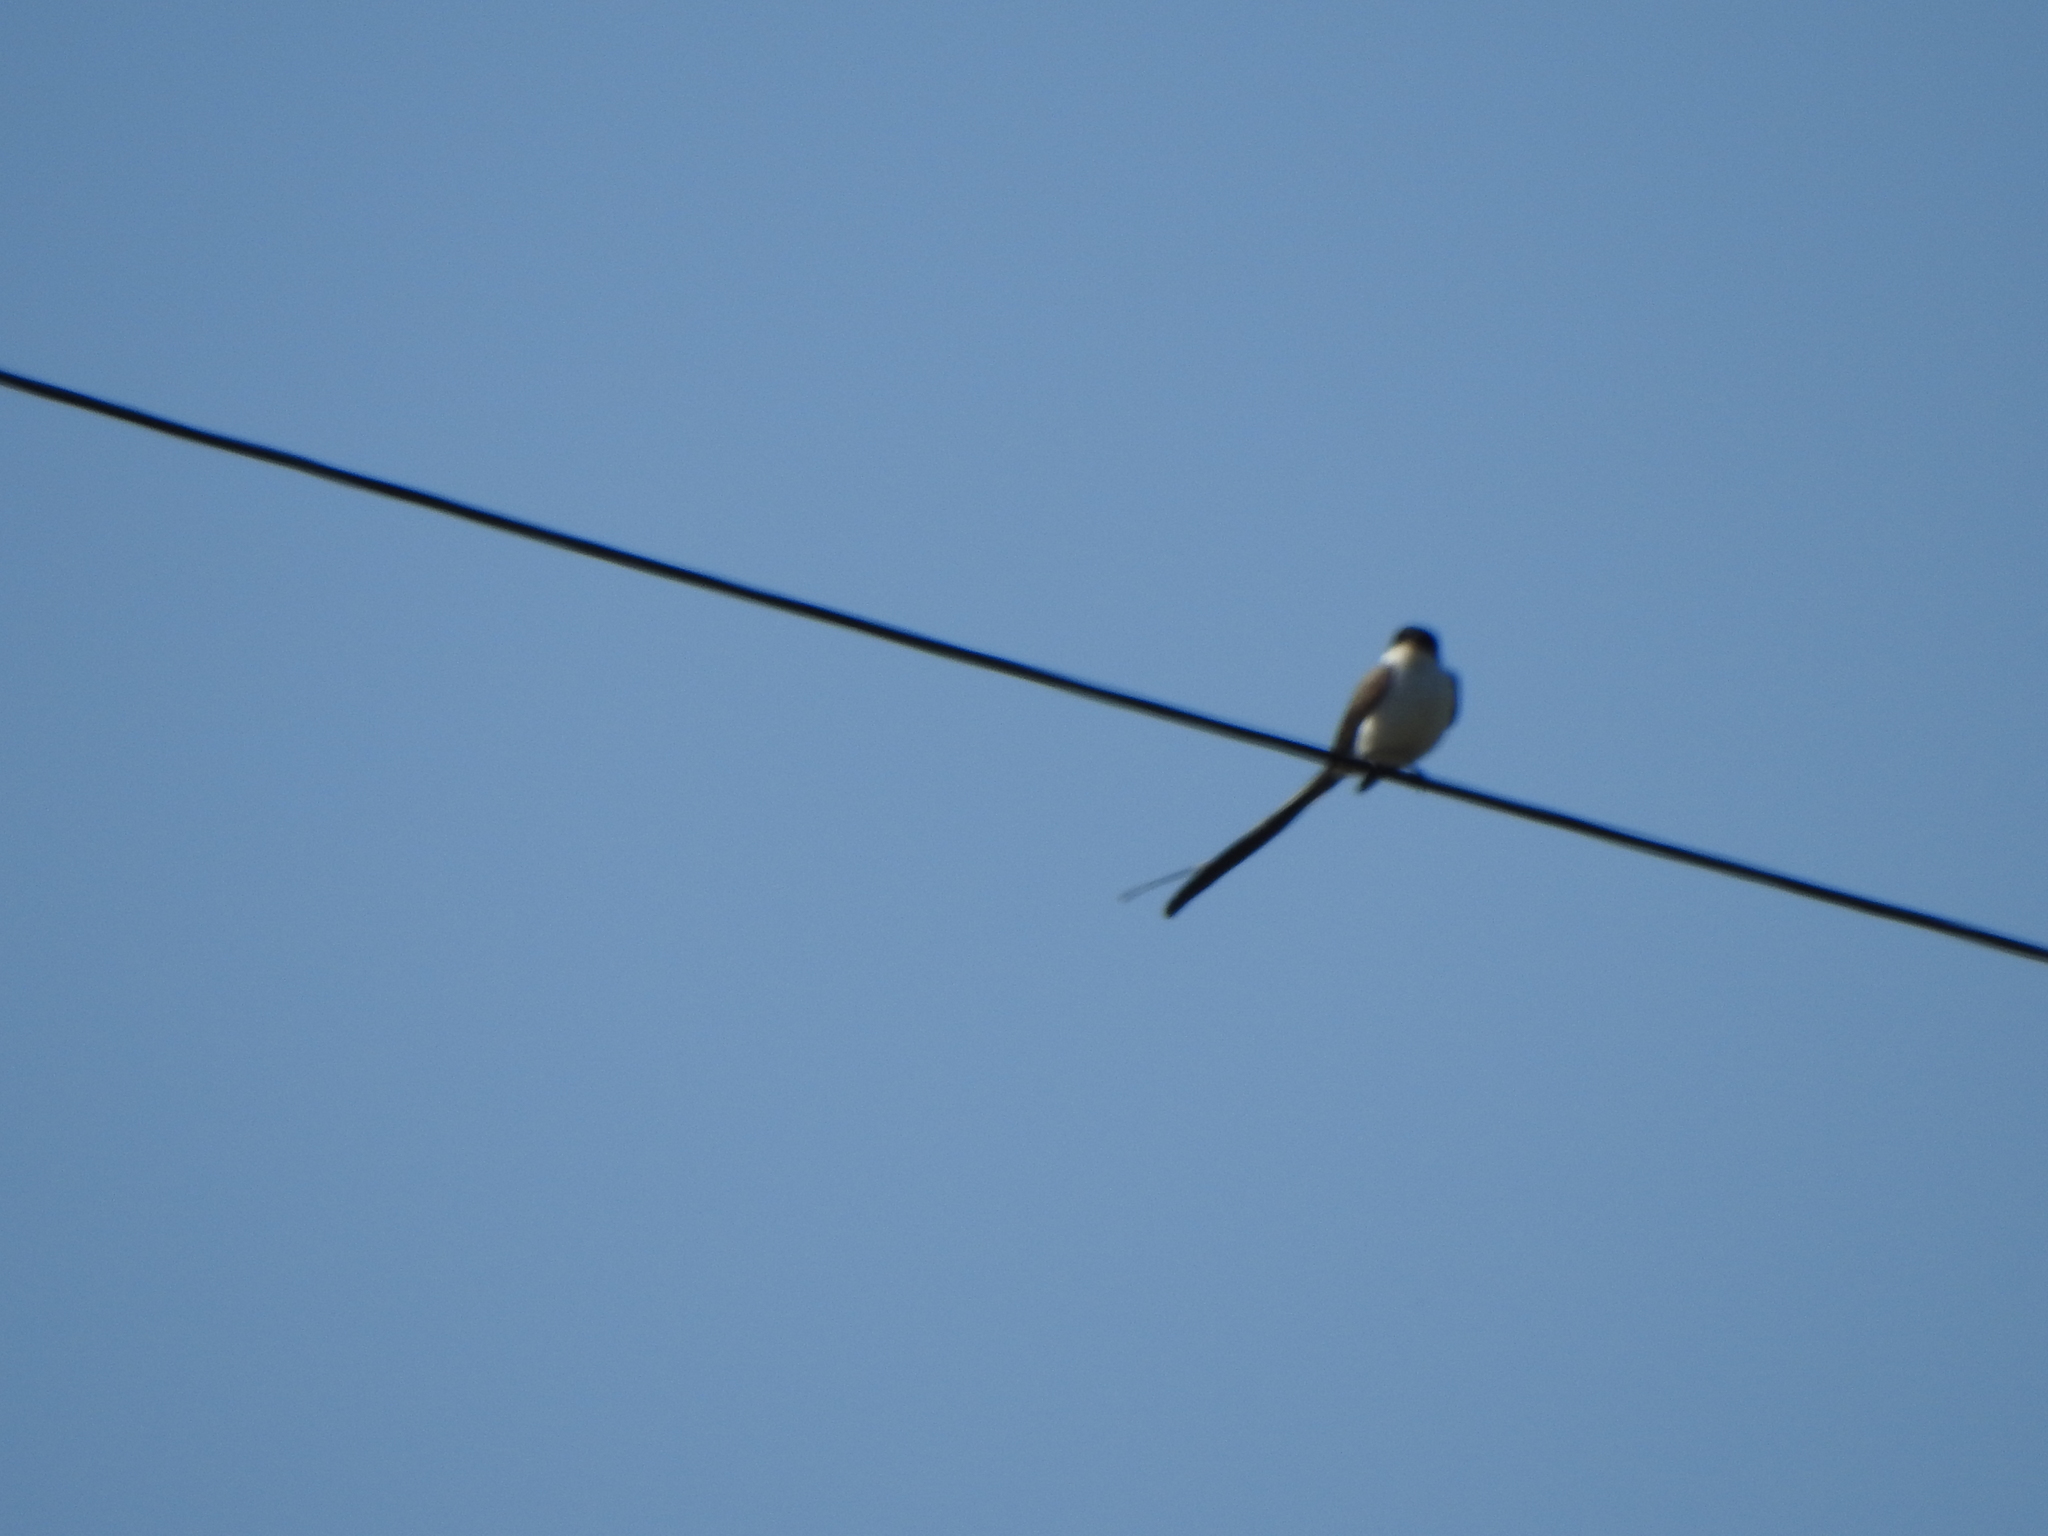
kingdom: Animalia
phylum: Chordata
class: Aves
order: Passeriformes
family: Tyrannidae
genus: Tyrannus
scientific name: Tyrannus savana
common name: Fork-tailed flycatcher
